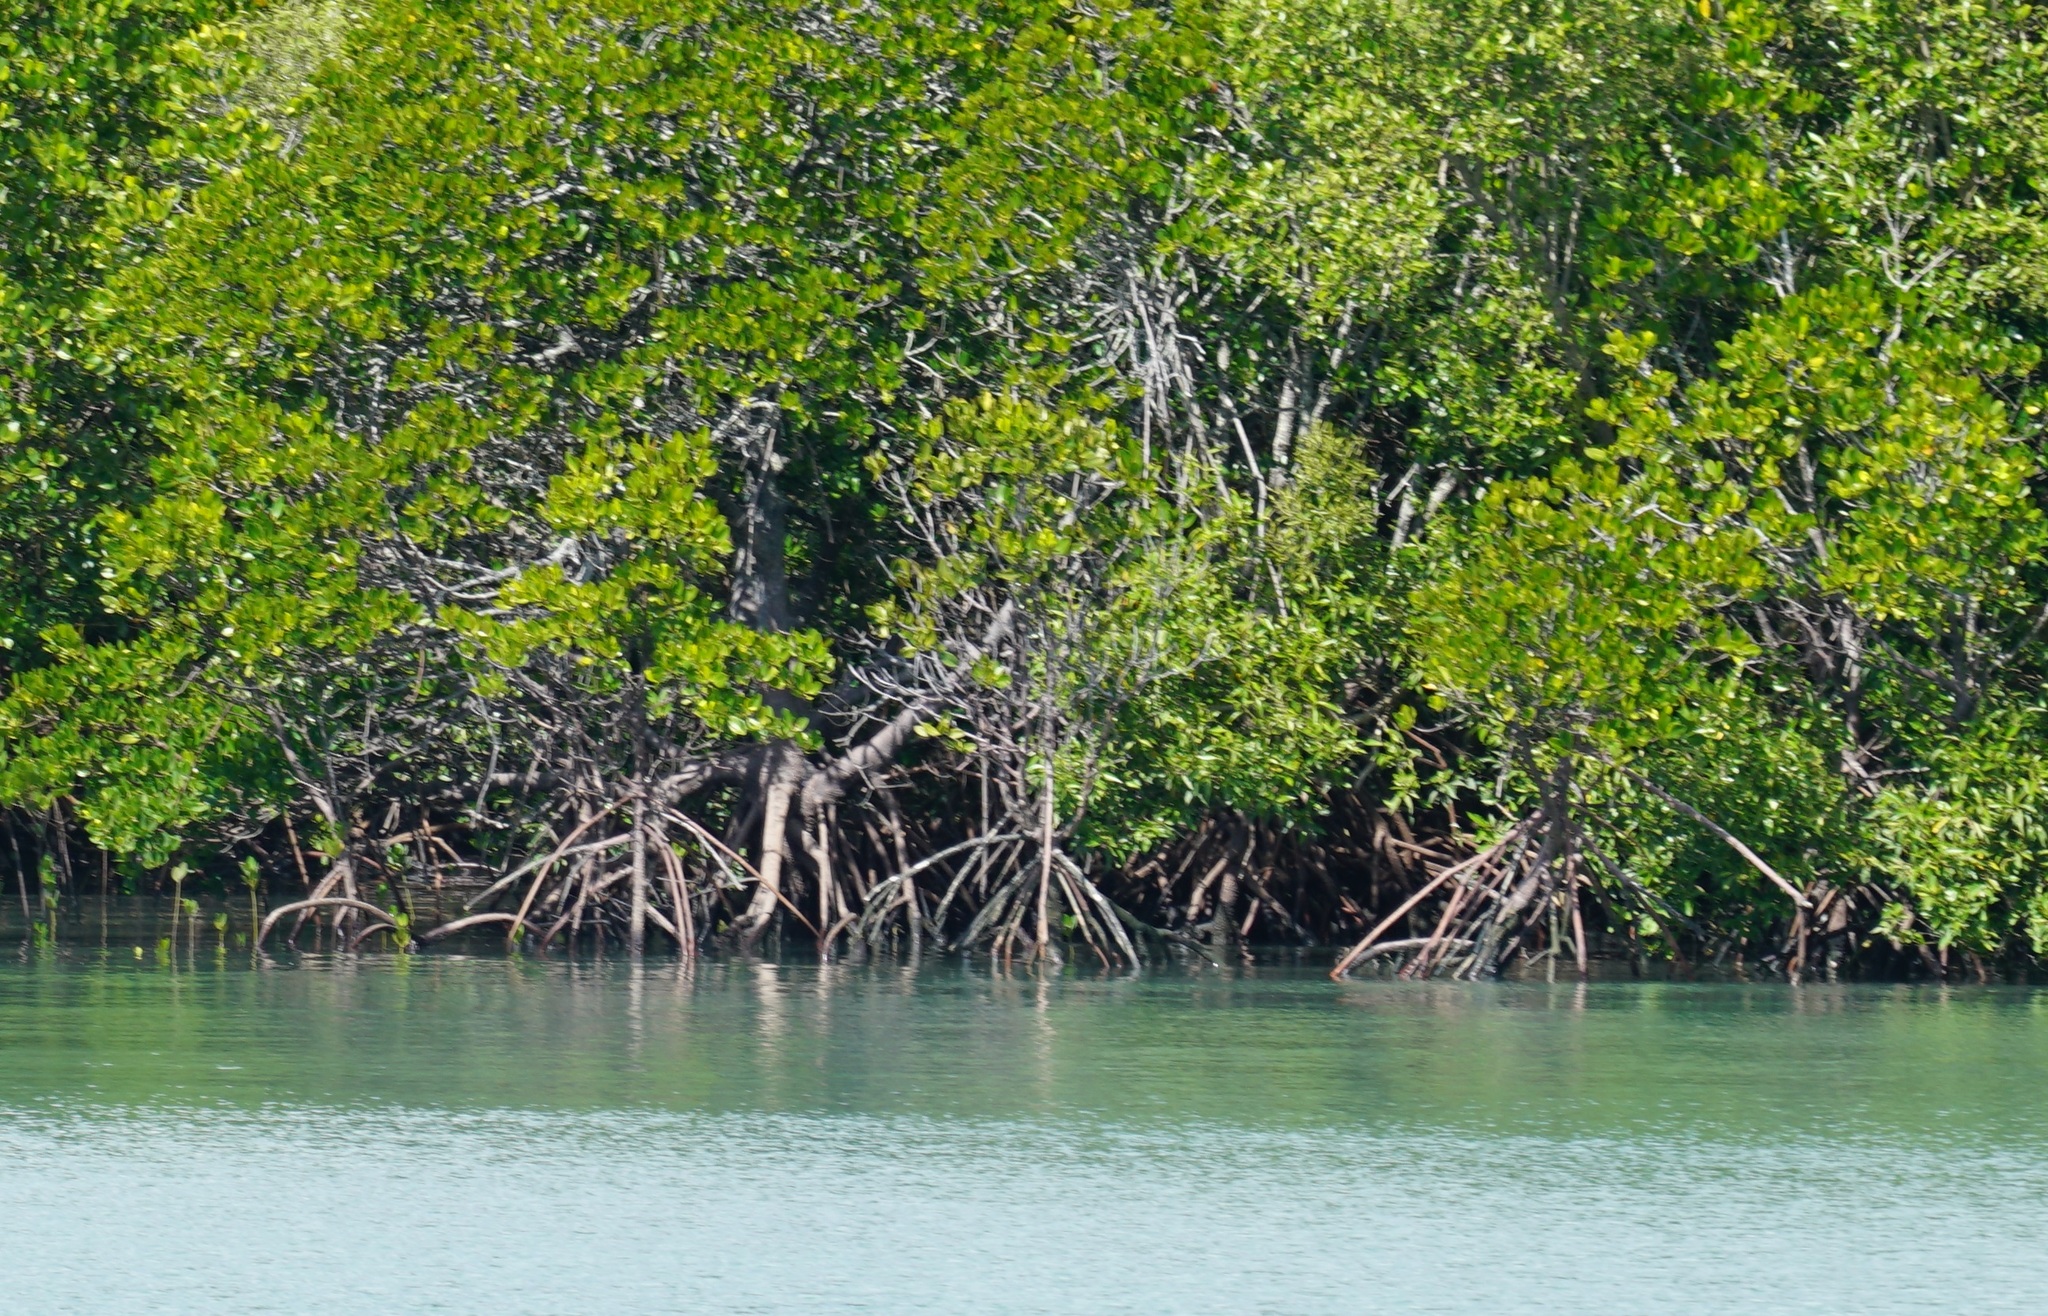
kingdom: Plantae
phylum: Tracheophyta
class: Magnoliopsida
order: Malpighiales
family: Rhizophoraceae
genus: Rhizophora
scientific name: Rhizophora stylosa
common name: Red mangrove
